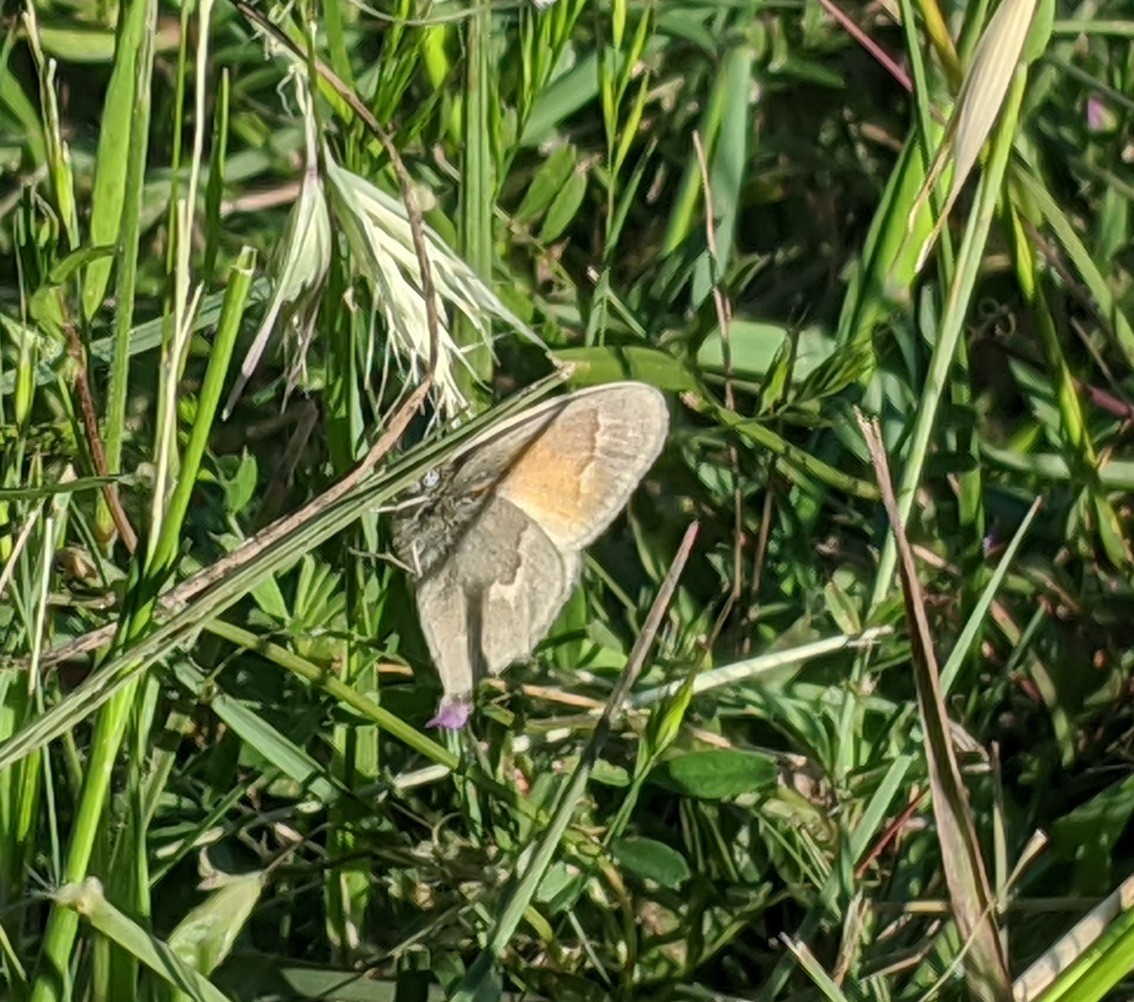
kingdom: Animalia
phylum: Arthropoda
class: Insecta
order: Lepidoptera
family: Nymphalidae
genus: Coenonympha
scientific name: Coenonympha california
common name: Common ringlet
